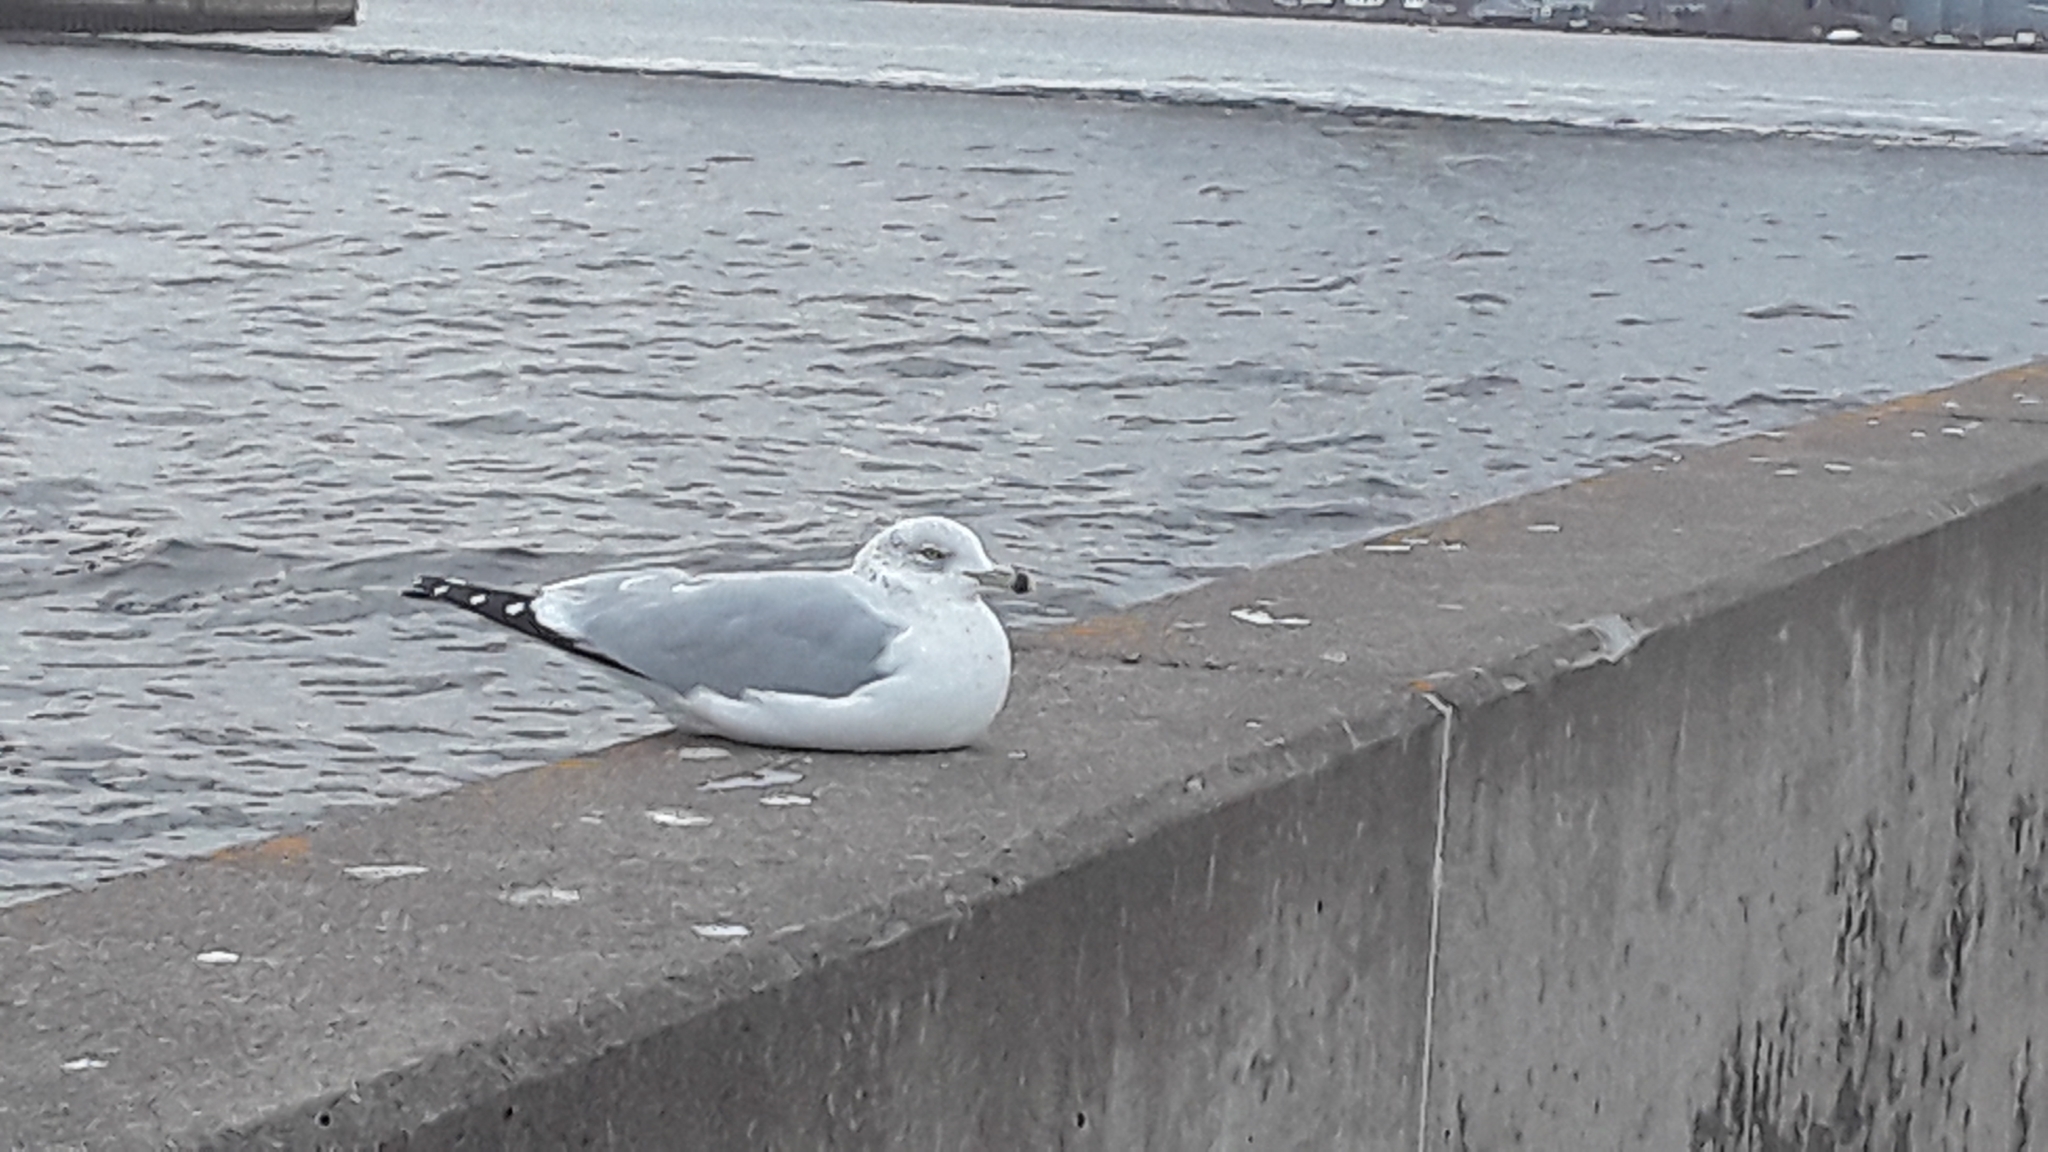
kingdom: Animalia
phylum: Chordata
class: Aves
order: Charadriiformes
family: Laridae
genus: Larus
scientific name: Larus delawarensis
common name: Ring-billed gull
